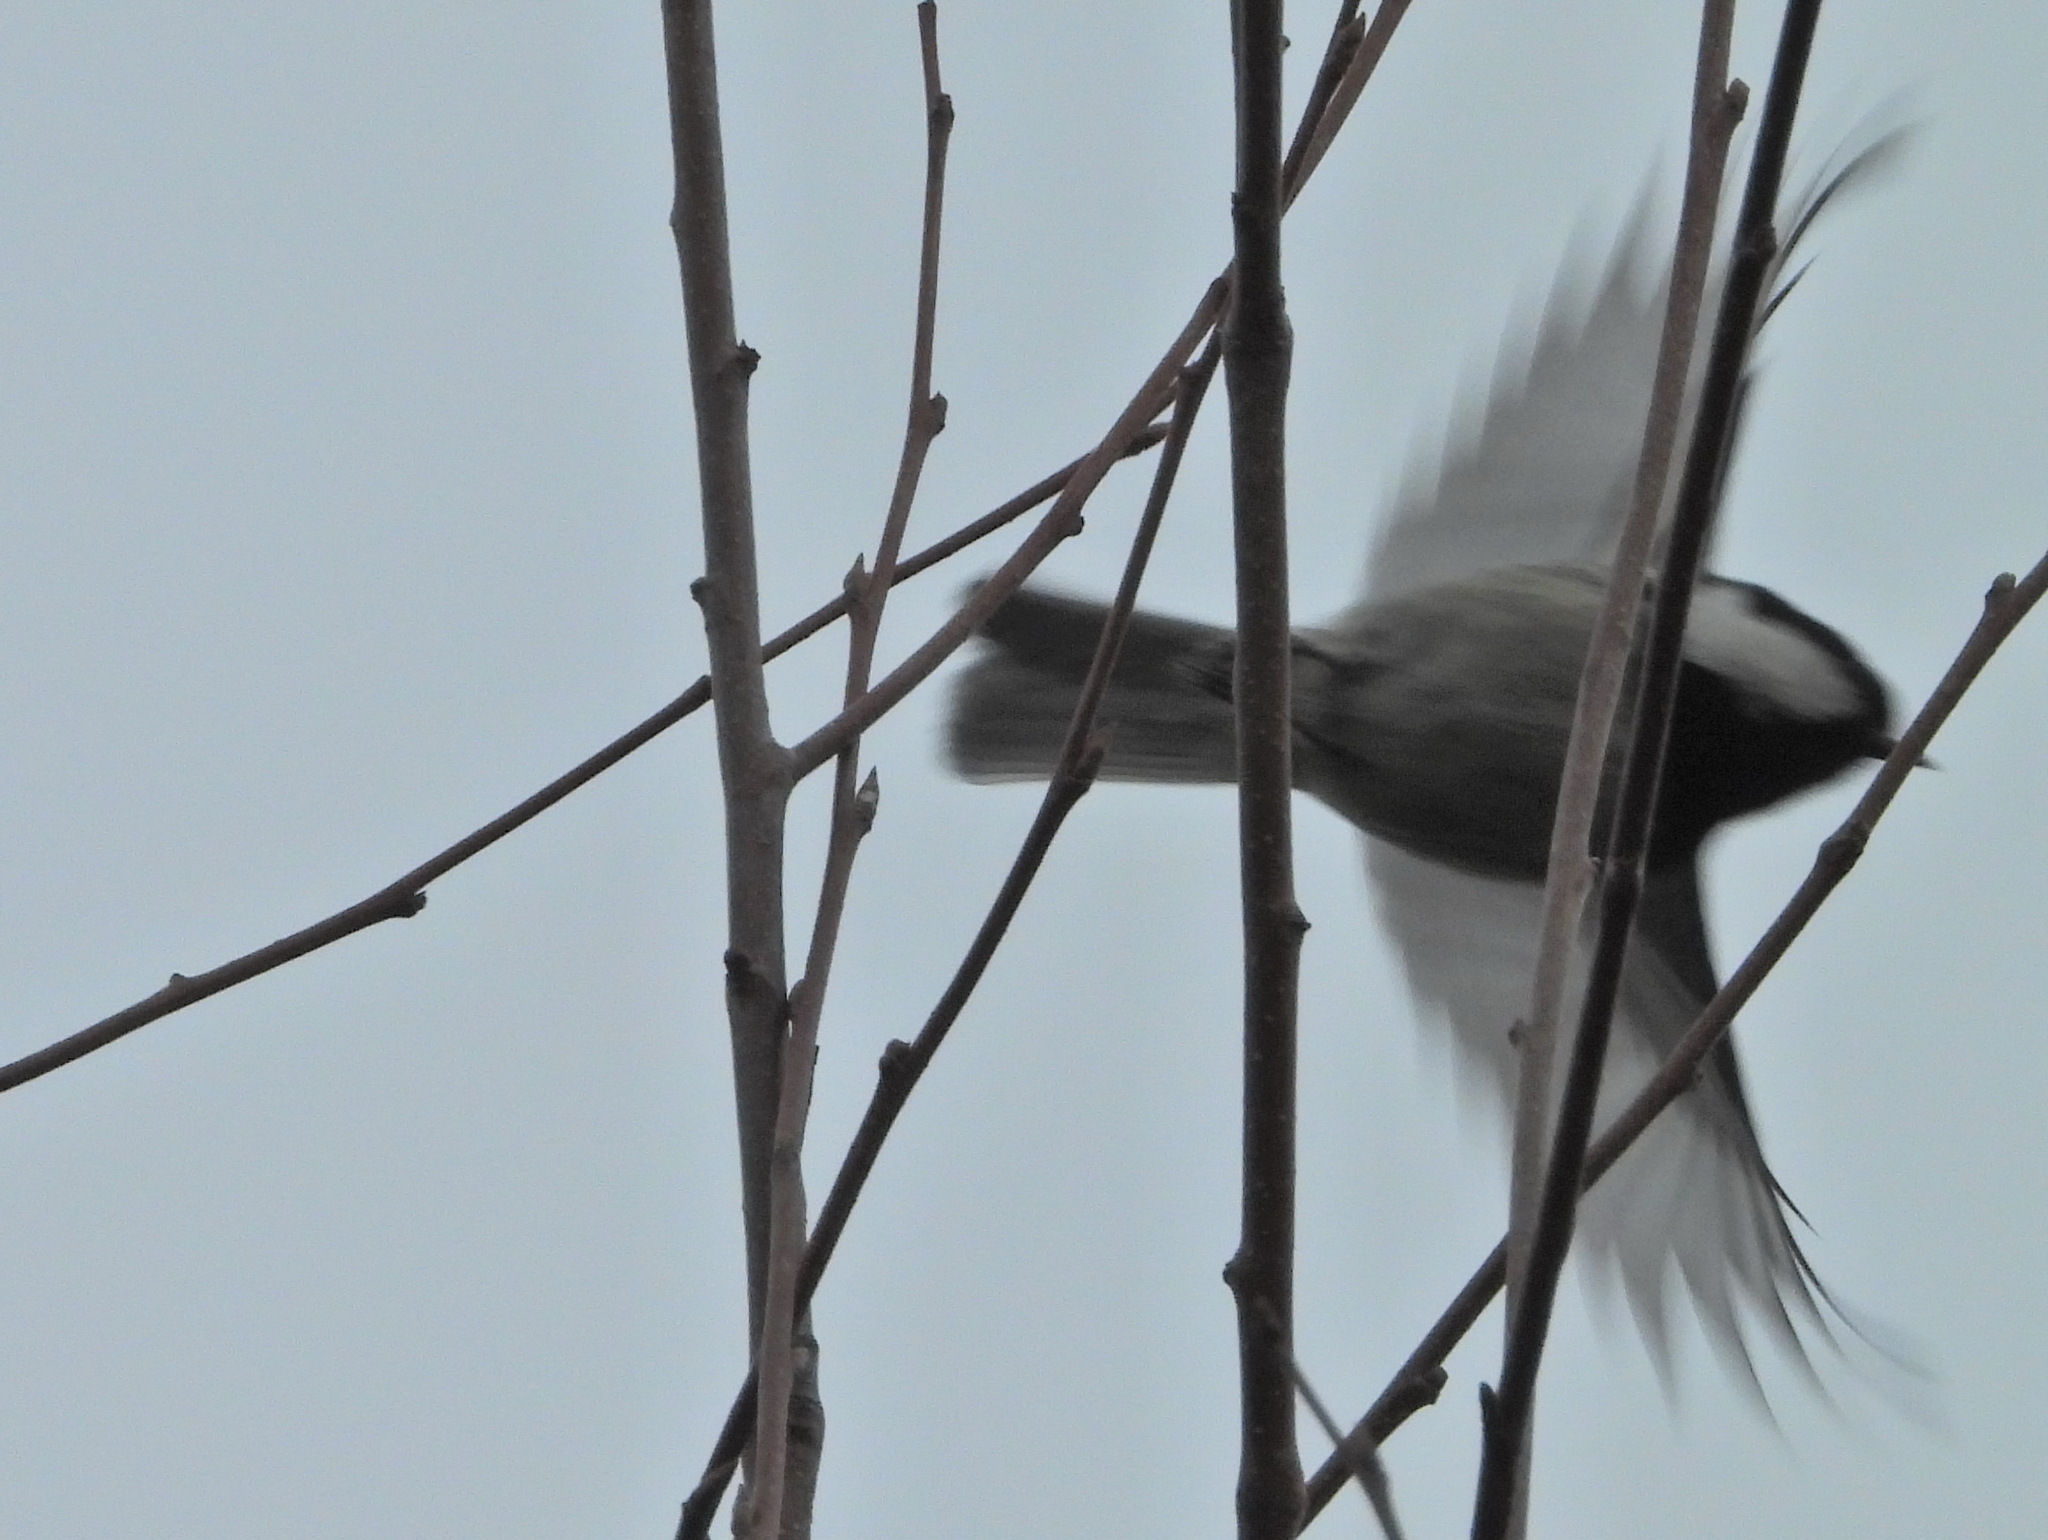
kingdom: Animalia
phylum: Chordata
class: Aves
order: Passeriformes
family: Paridae
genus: Periparus
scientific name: Periparus ater
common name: Coal tit
